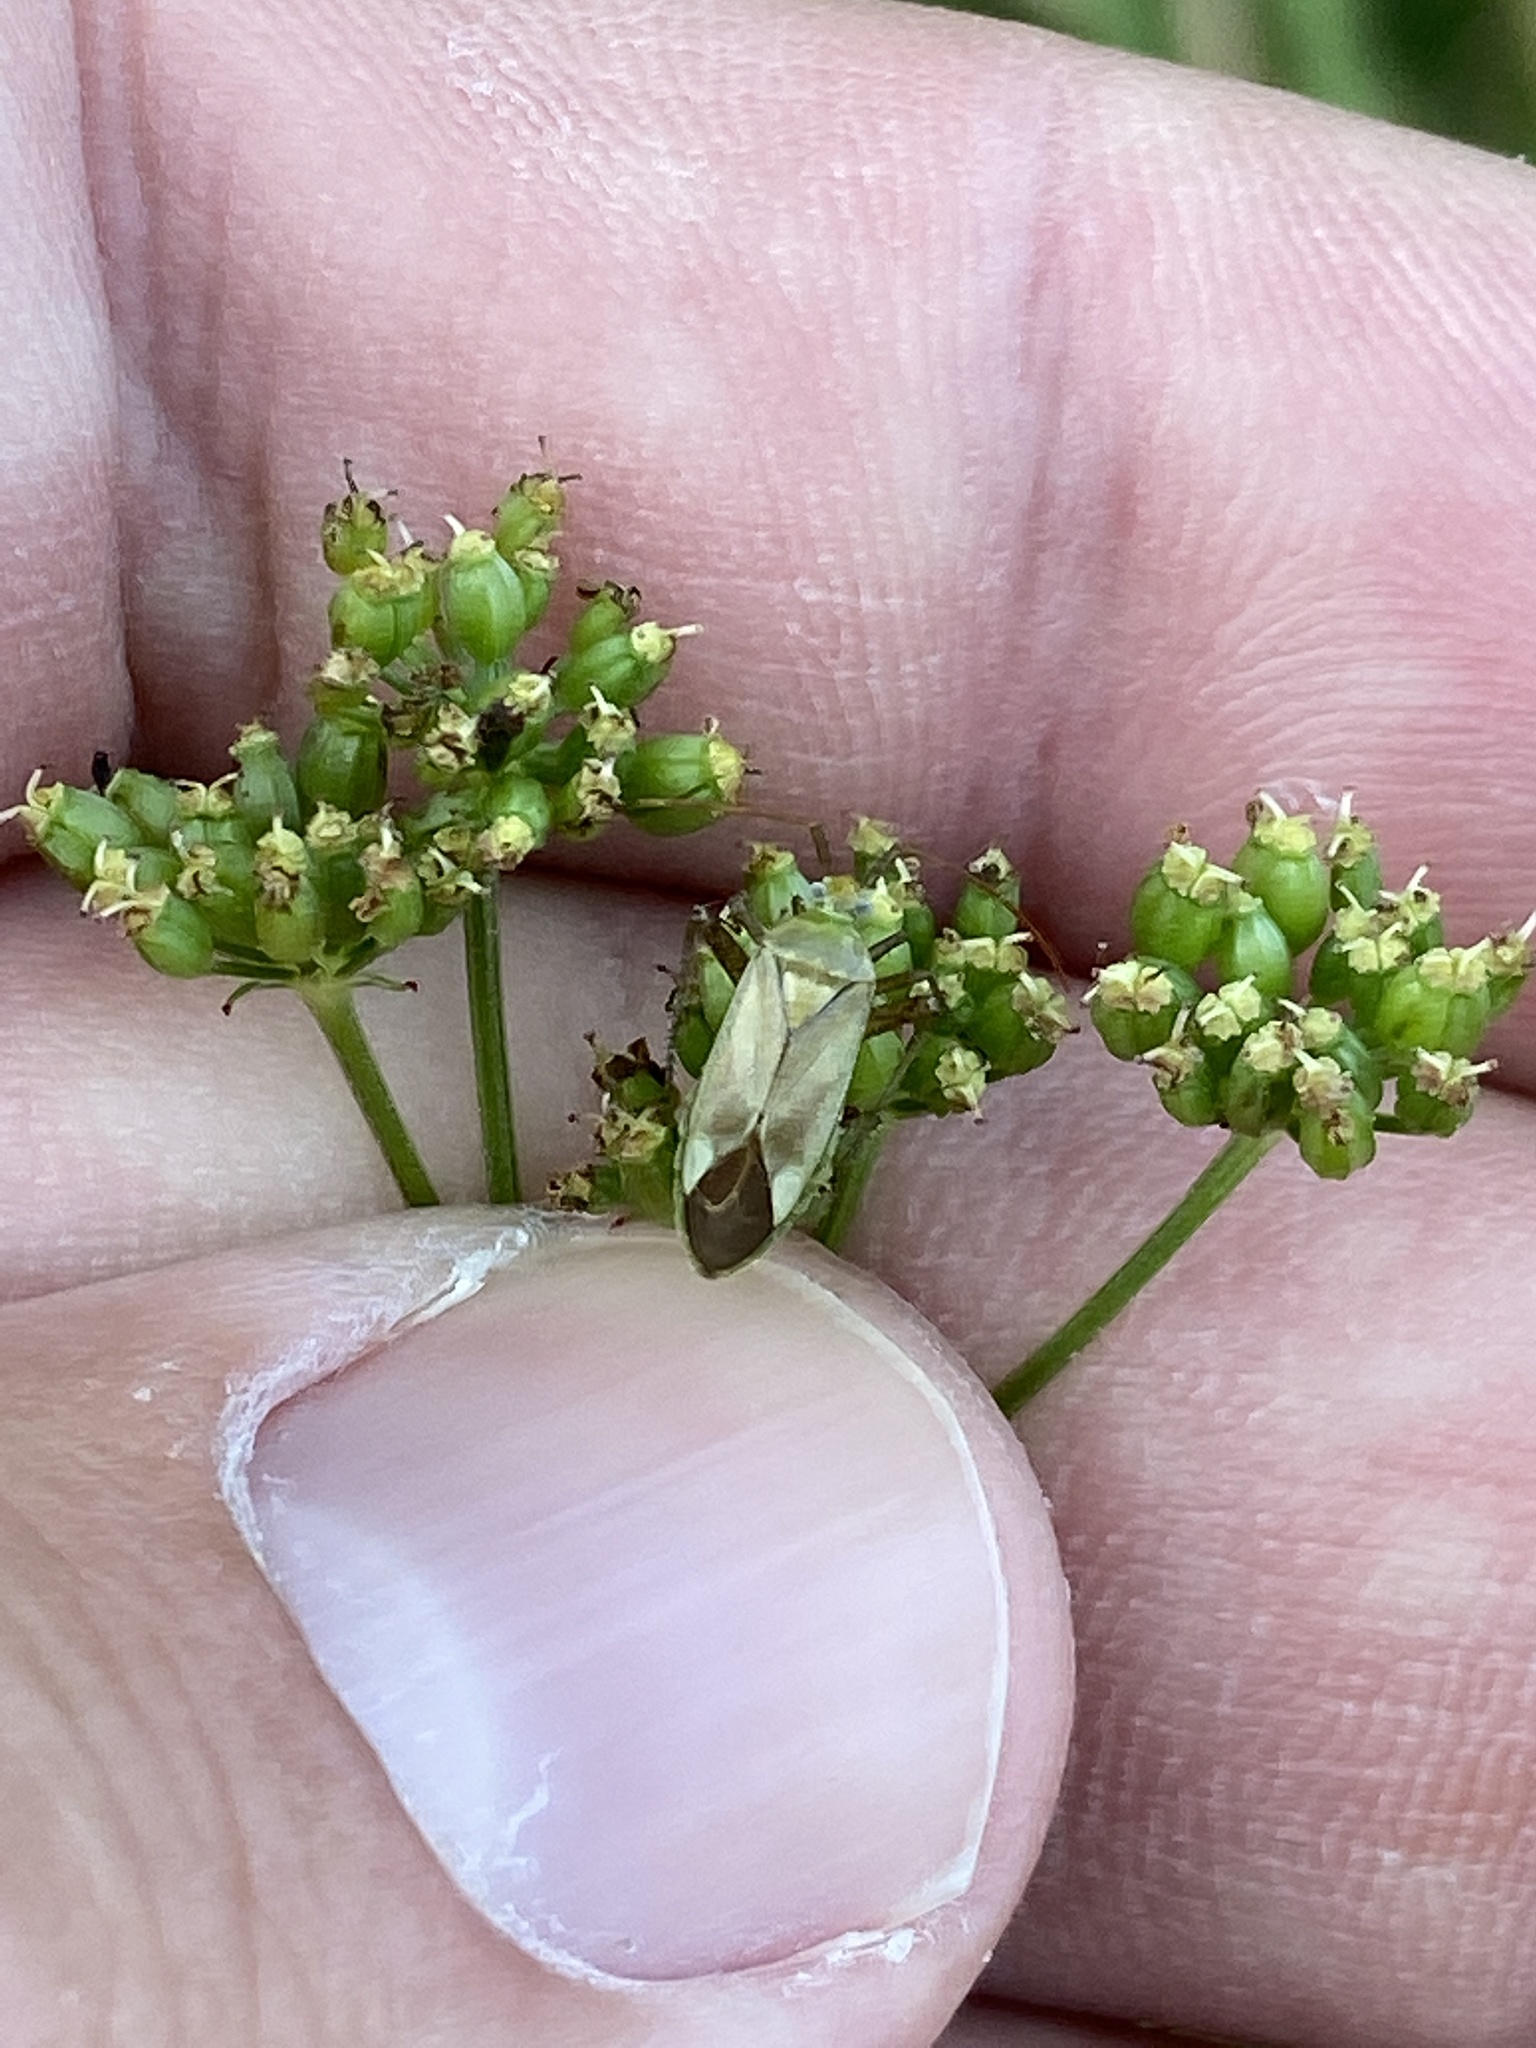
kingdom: Animalia
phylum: Arthropoda
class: Insecta
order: Hemiptera
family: Miridae
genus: Adelphocoris
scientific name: Adelphocoris lineolatus
